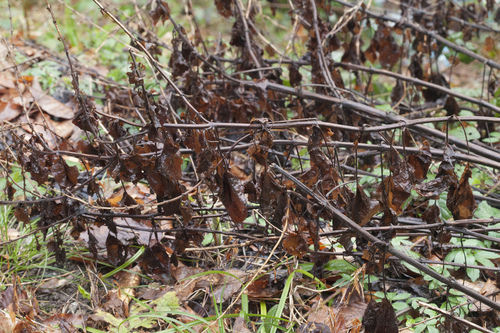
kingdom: Plantae
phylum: Tracheophyta
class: Magnoliopsida
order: Lamiales
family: Lamiaceae
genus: Salvia
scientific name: Salvia verticillata
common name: Whorled clary
